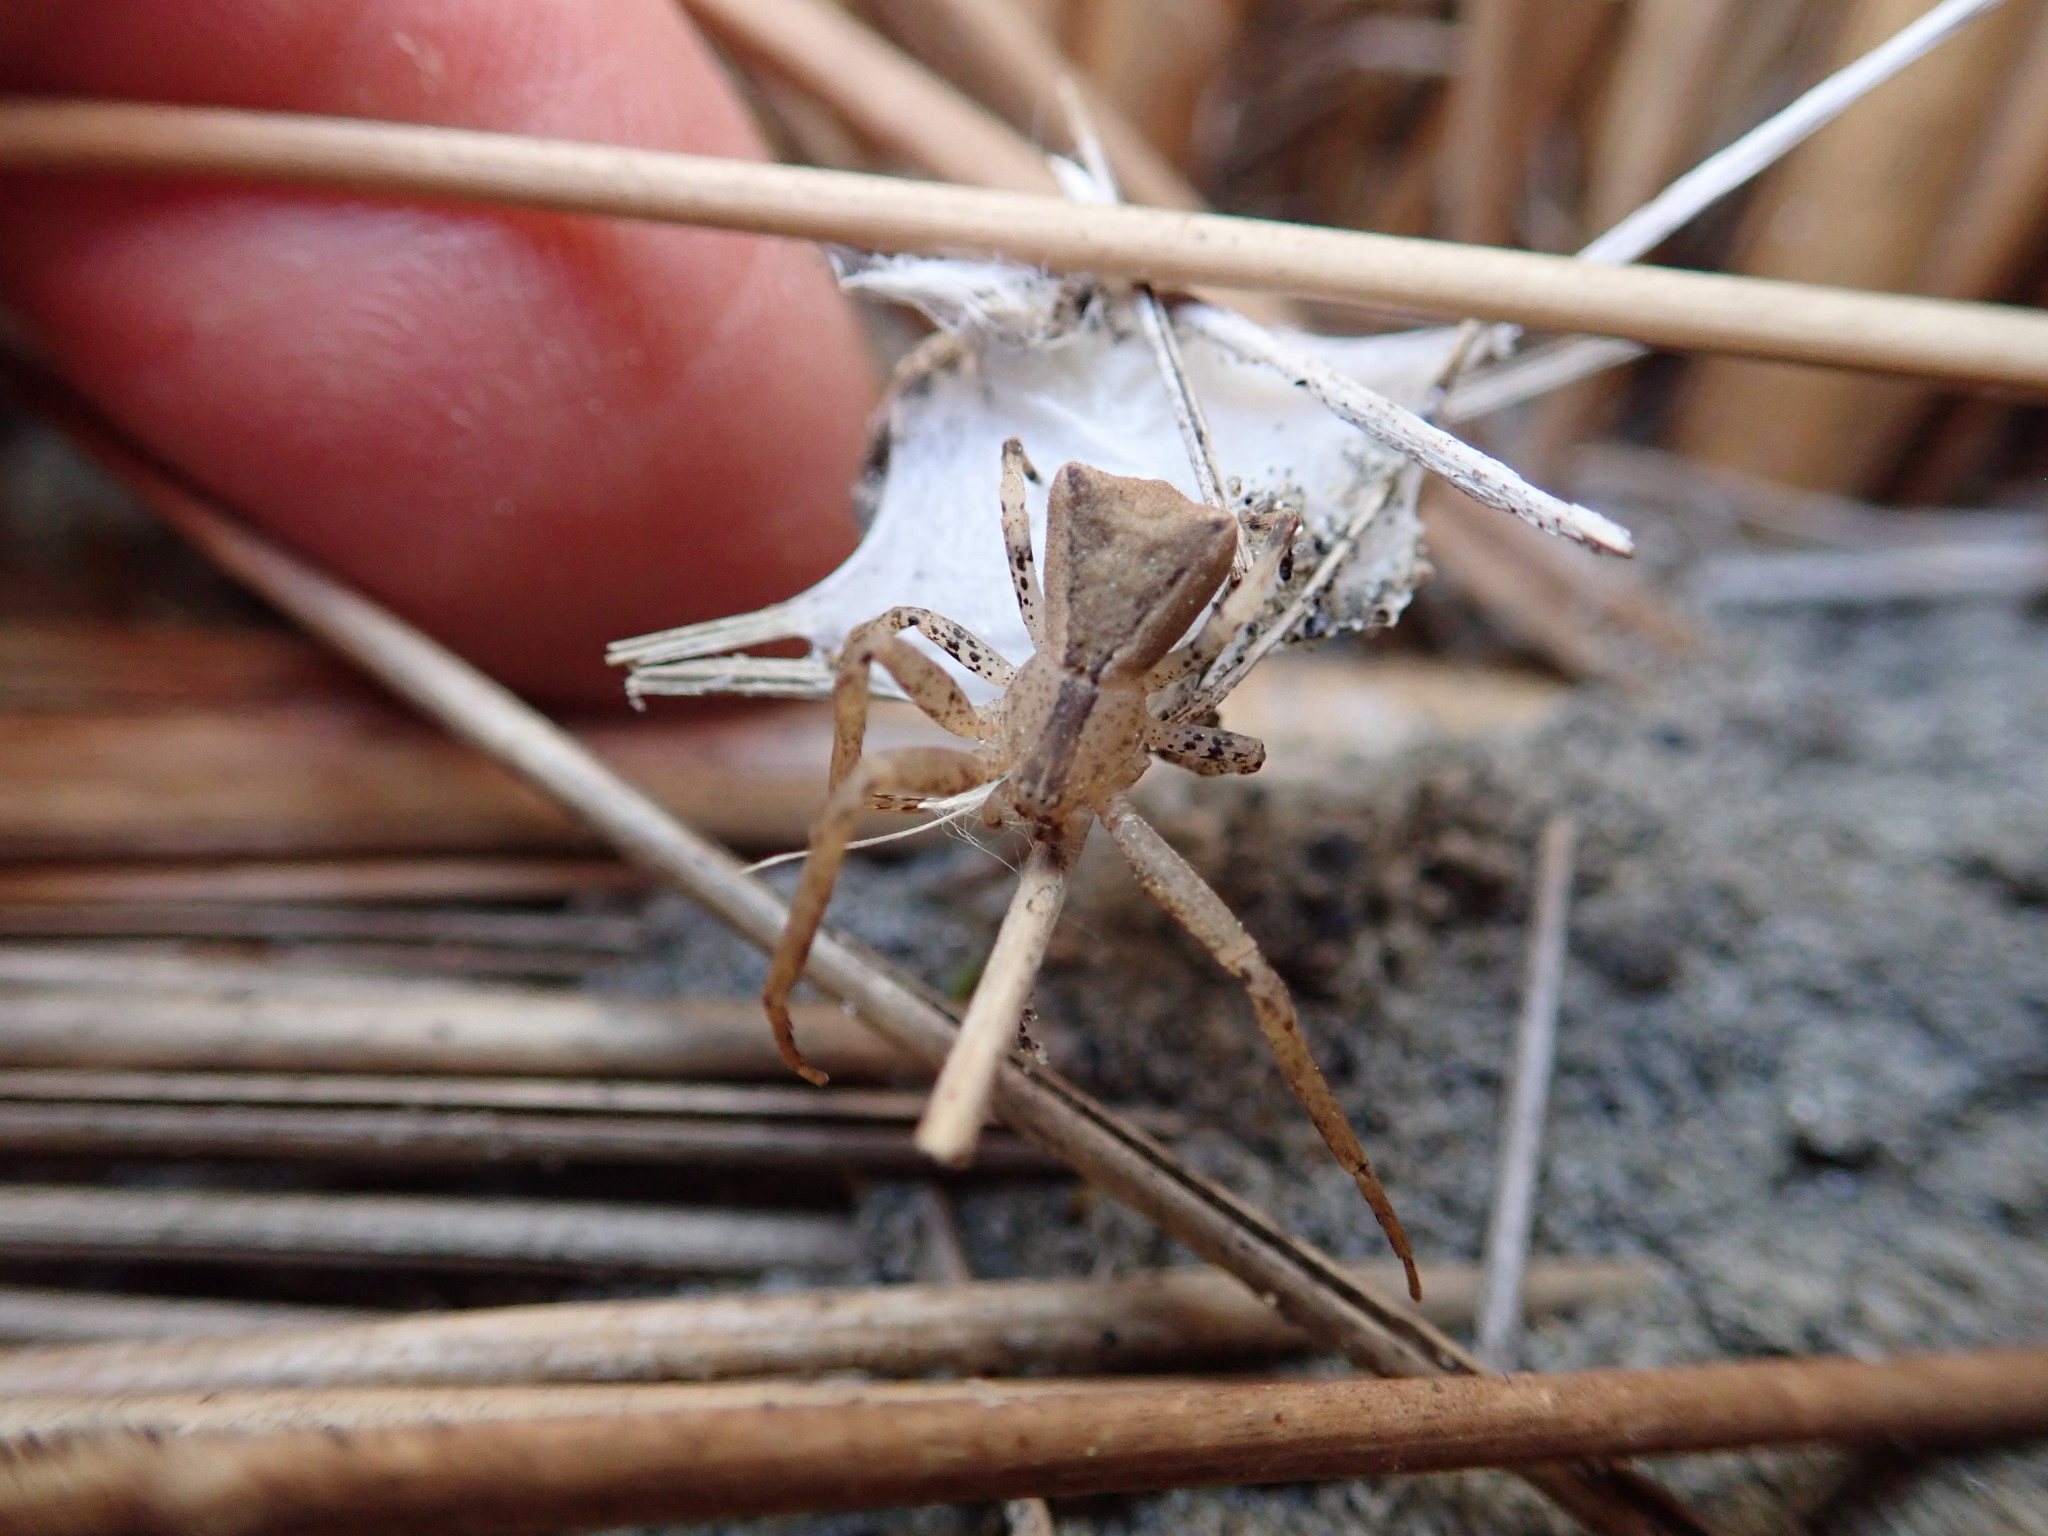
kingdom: Animalia
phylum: Arthropoda
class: Arachnida
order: Araneae
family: Thomisidae
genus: Sidymella
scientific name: Sidymella trapezia
